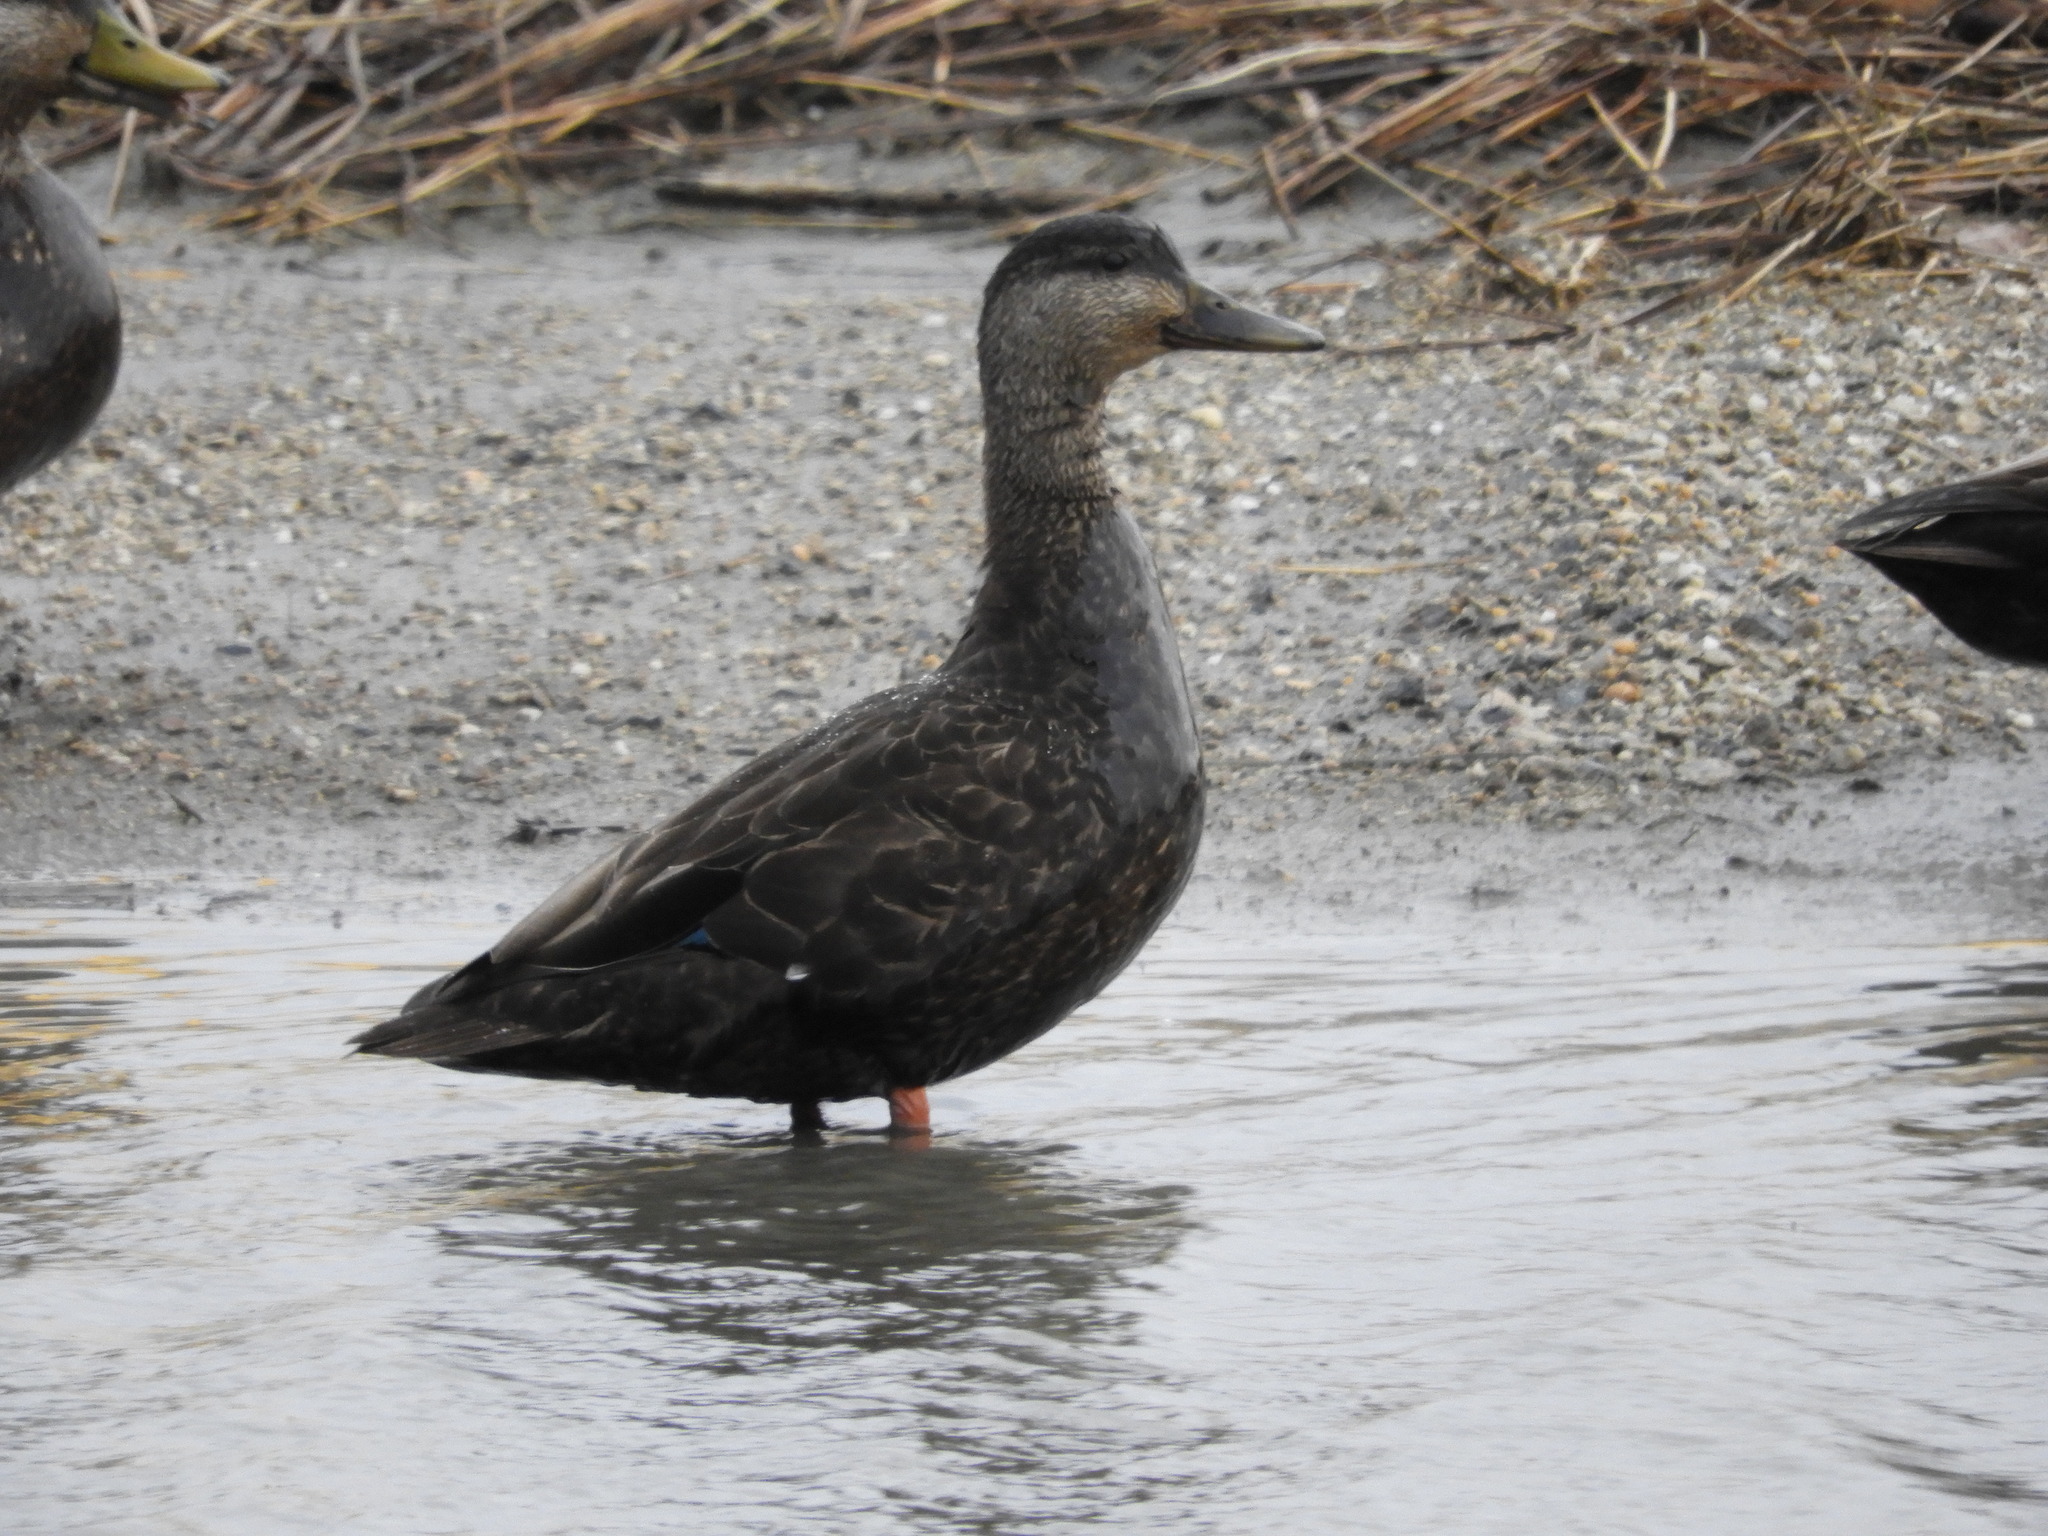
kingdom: Animalia
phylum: Chordata
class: Aves
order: Anseriformes
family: Anatidae
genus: Anas
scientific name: Anas rubripes
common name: American black duck
